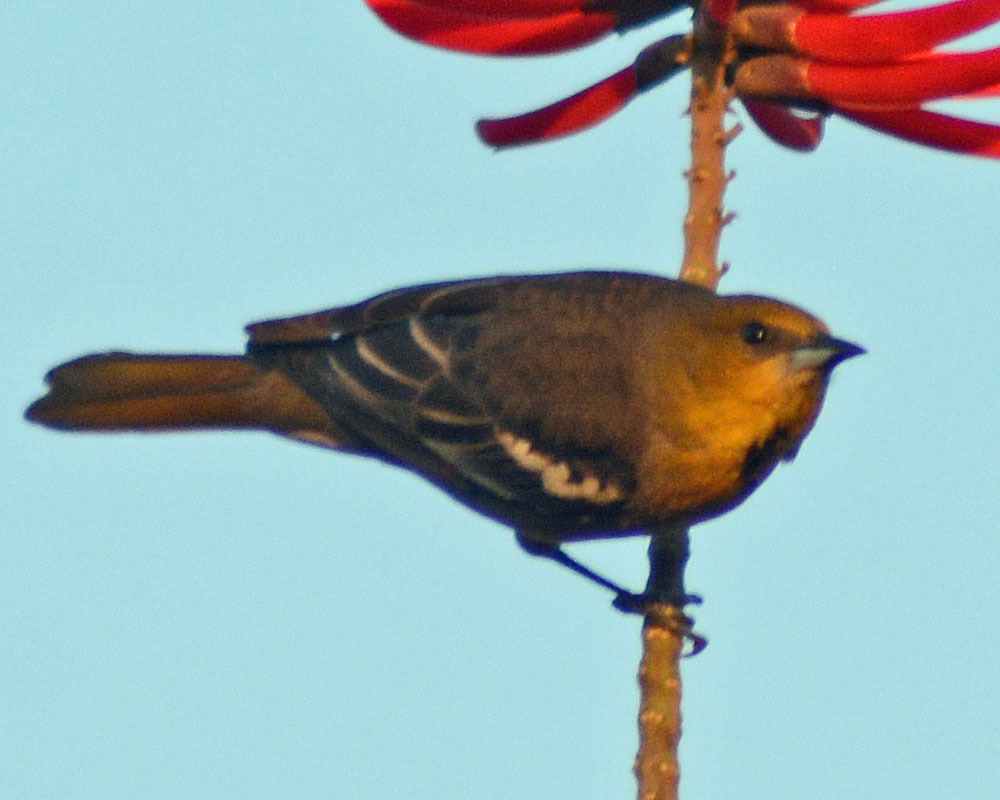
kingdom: Animalia
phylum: Chordata
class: Aves
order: Passeriformes
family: Icteridae
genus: Icterus
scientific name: Icterus abeillei
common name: Black-backed oriole
